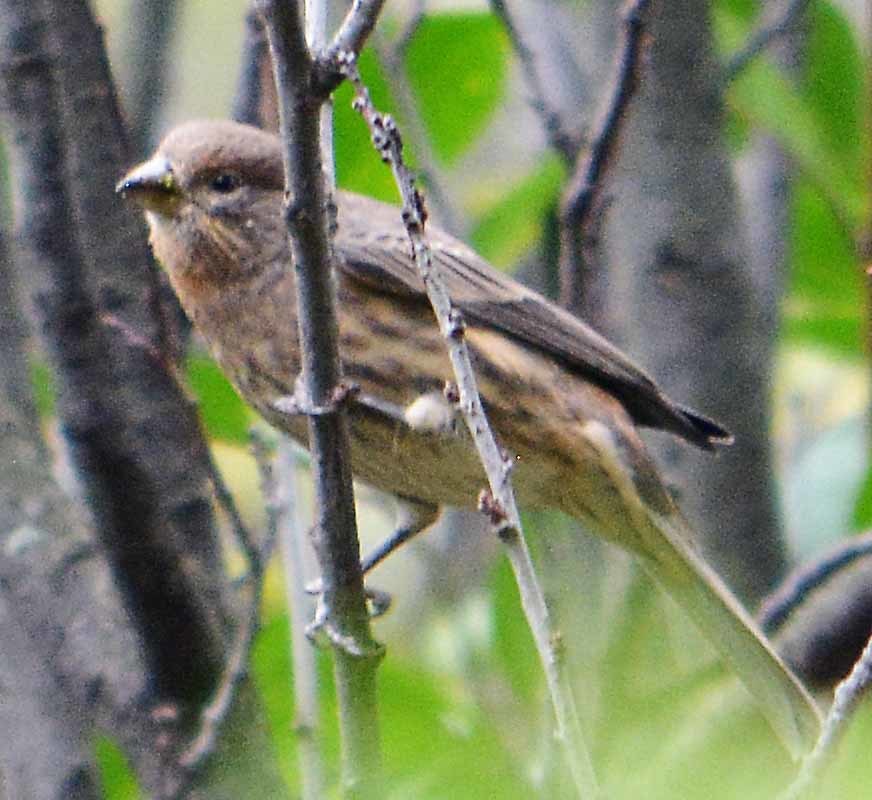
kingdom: Animalia
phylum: Chordata
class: Aves
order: Passeriformes
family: Fringillidae
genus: Haemorhous
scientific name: Haemorhous mexicanus
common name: House finch
